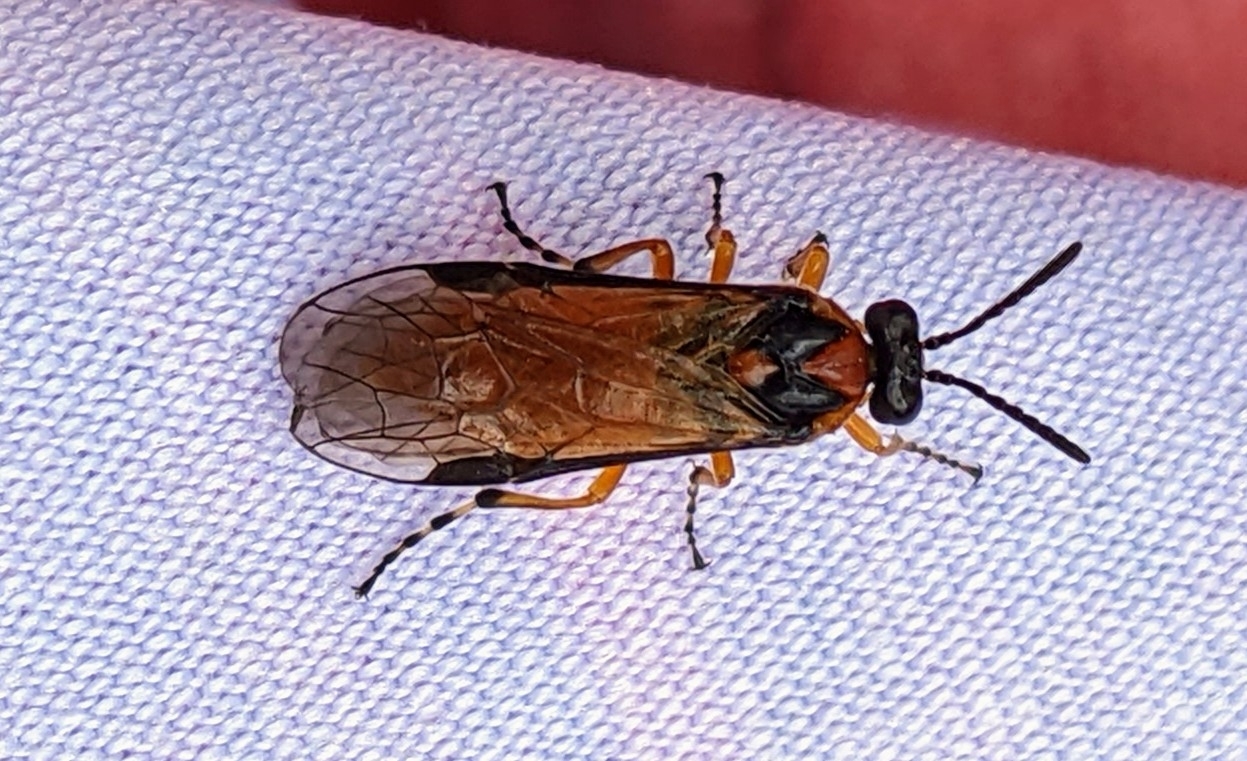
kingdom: Animalia
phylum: Arthropoda
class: Insecta
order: Hymenoptera
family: Tenthredinidae
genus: Athalia
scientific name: Athalia rosae
